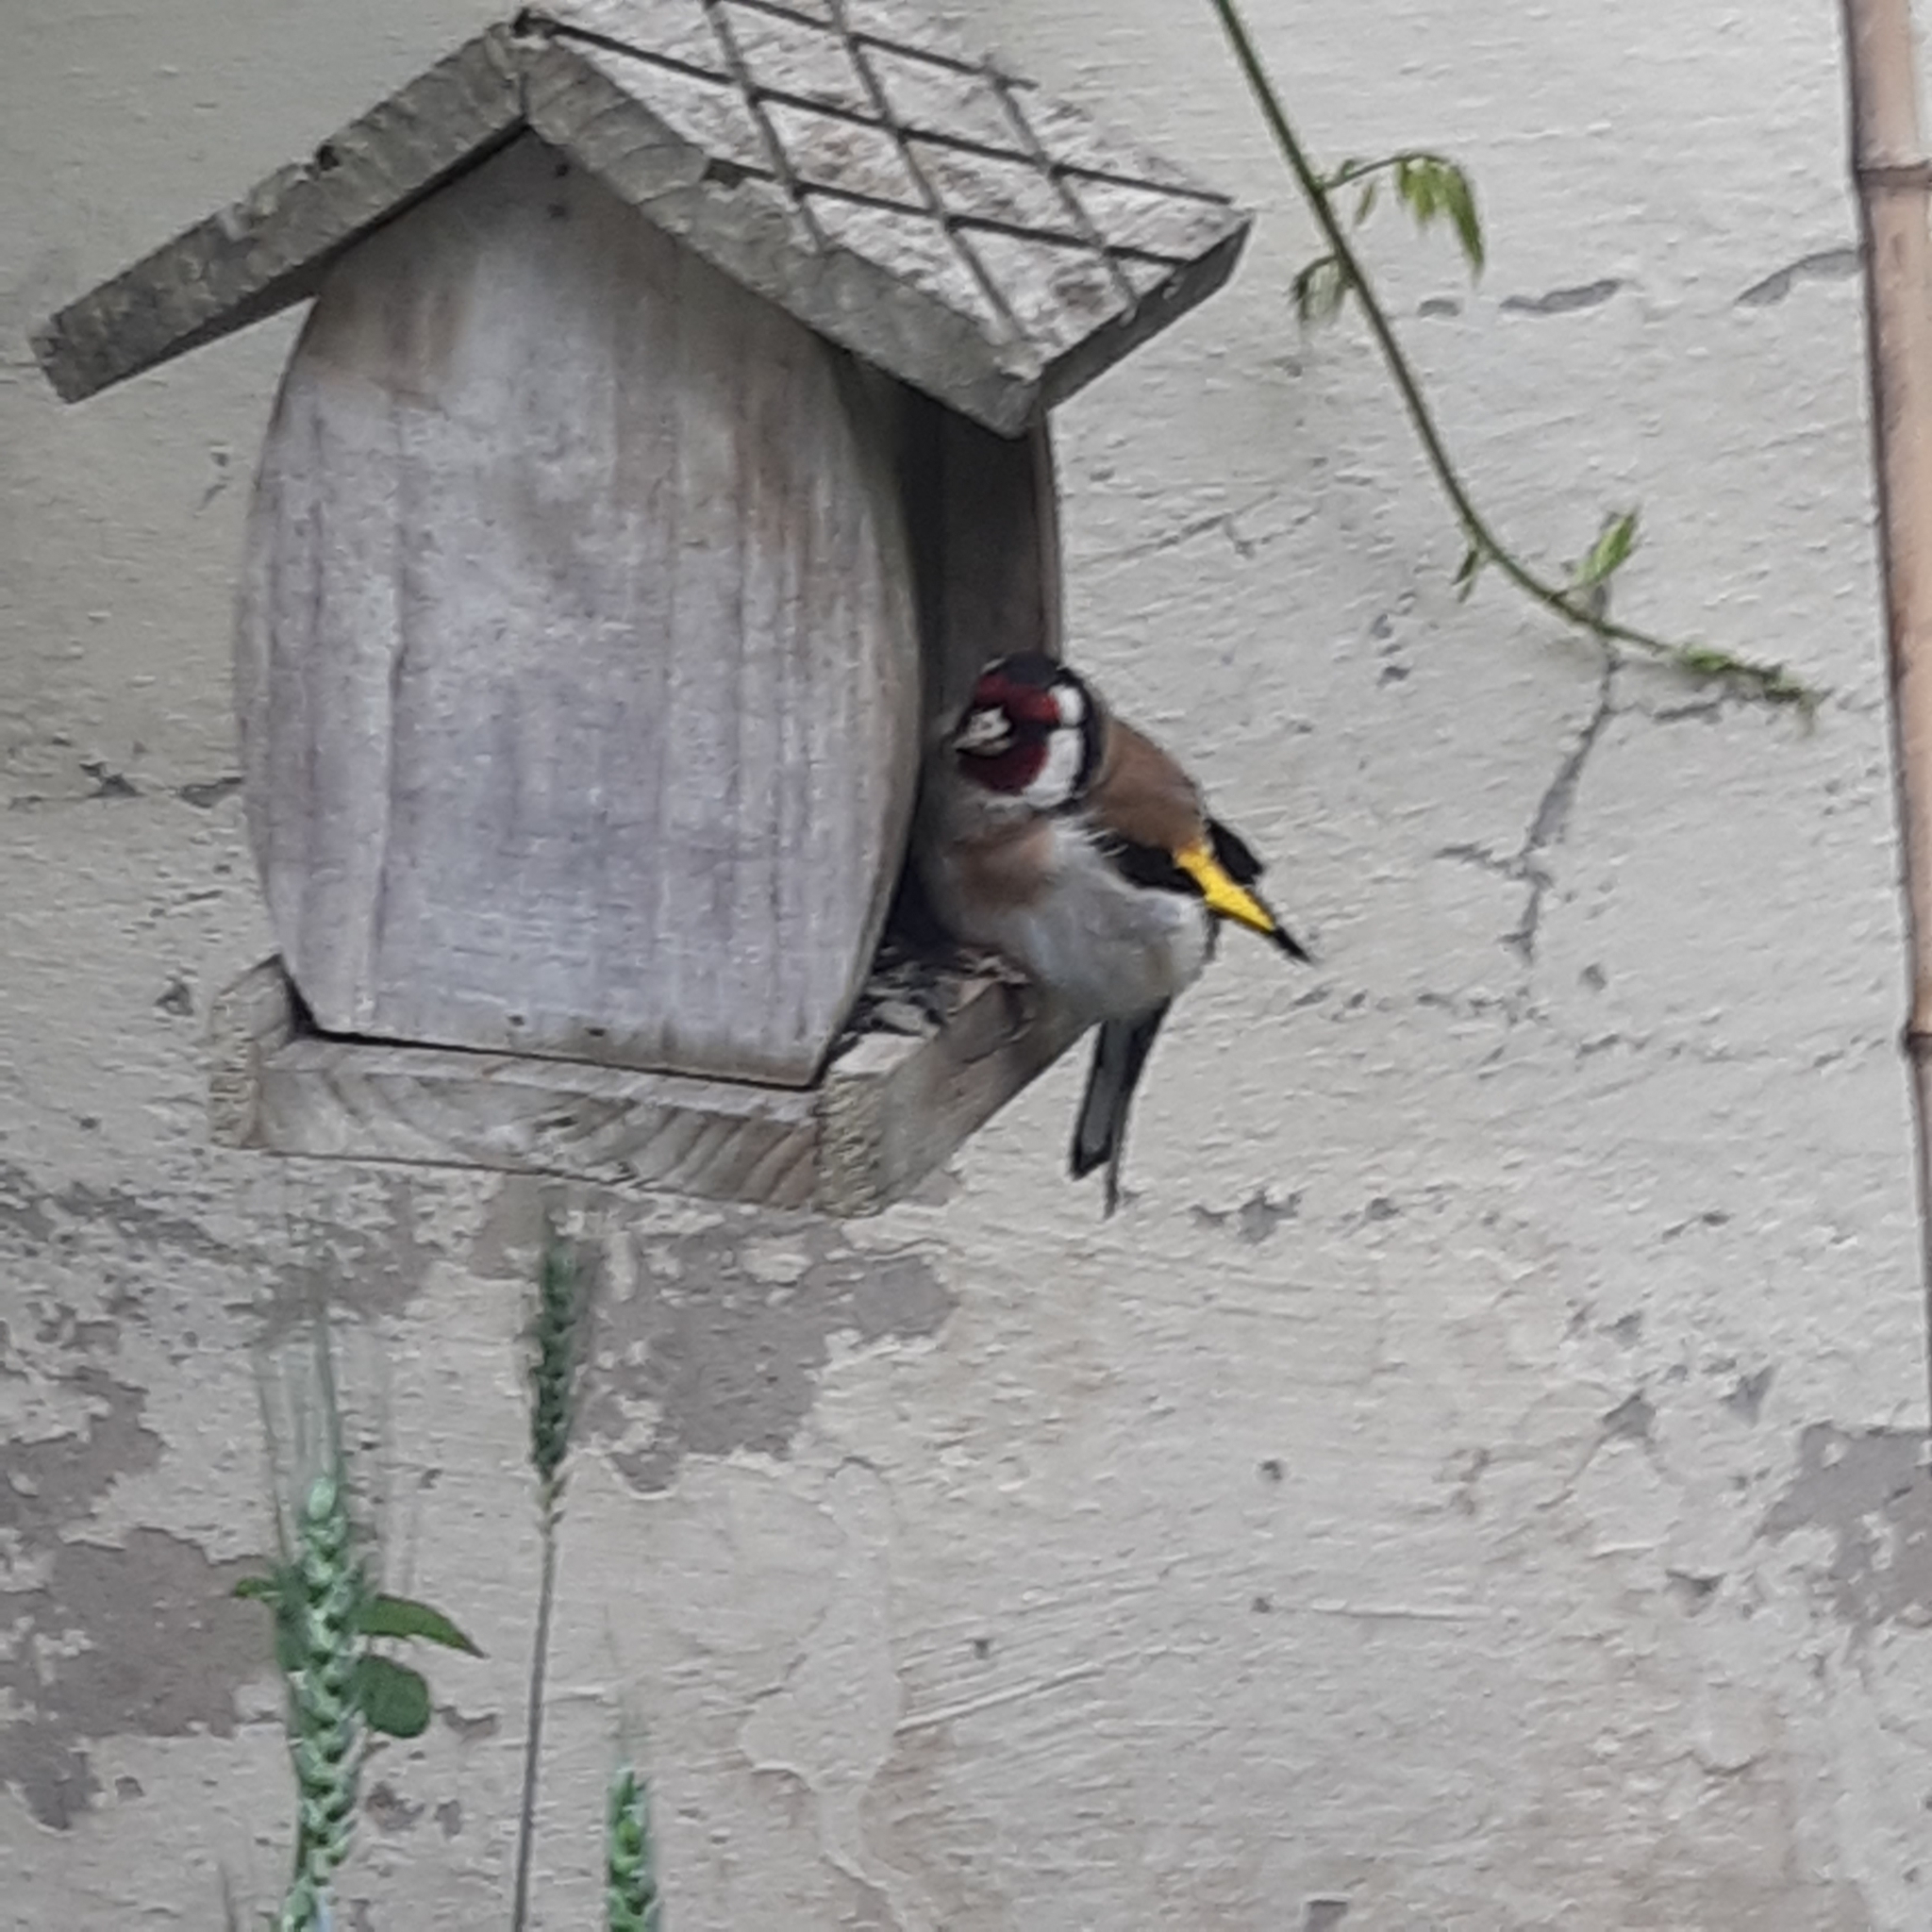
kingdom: Animalia
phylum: Chordata
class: Aves
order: Passeriformes
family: Fringillidae
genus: Carduelis
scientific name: Carduelis carduelis
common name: European goldfinch
